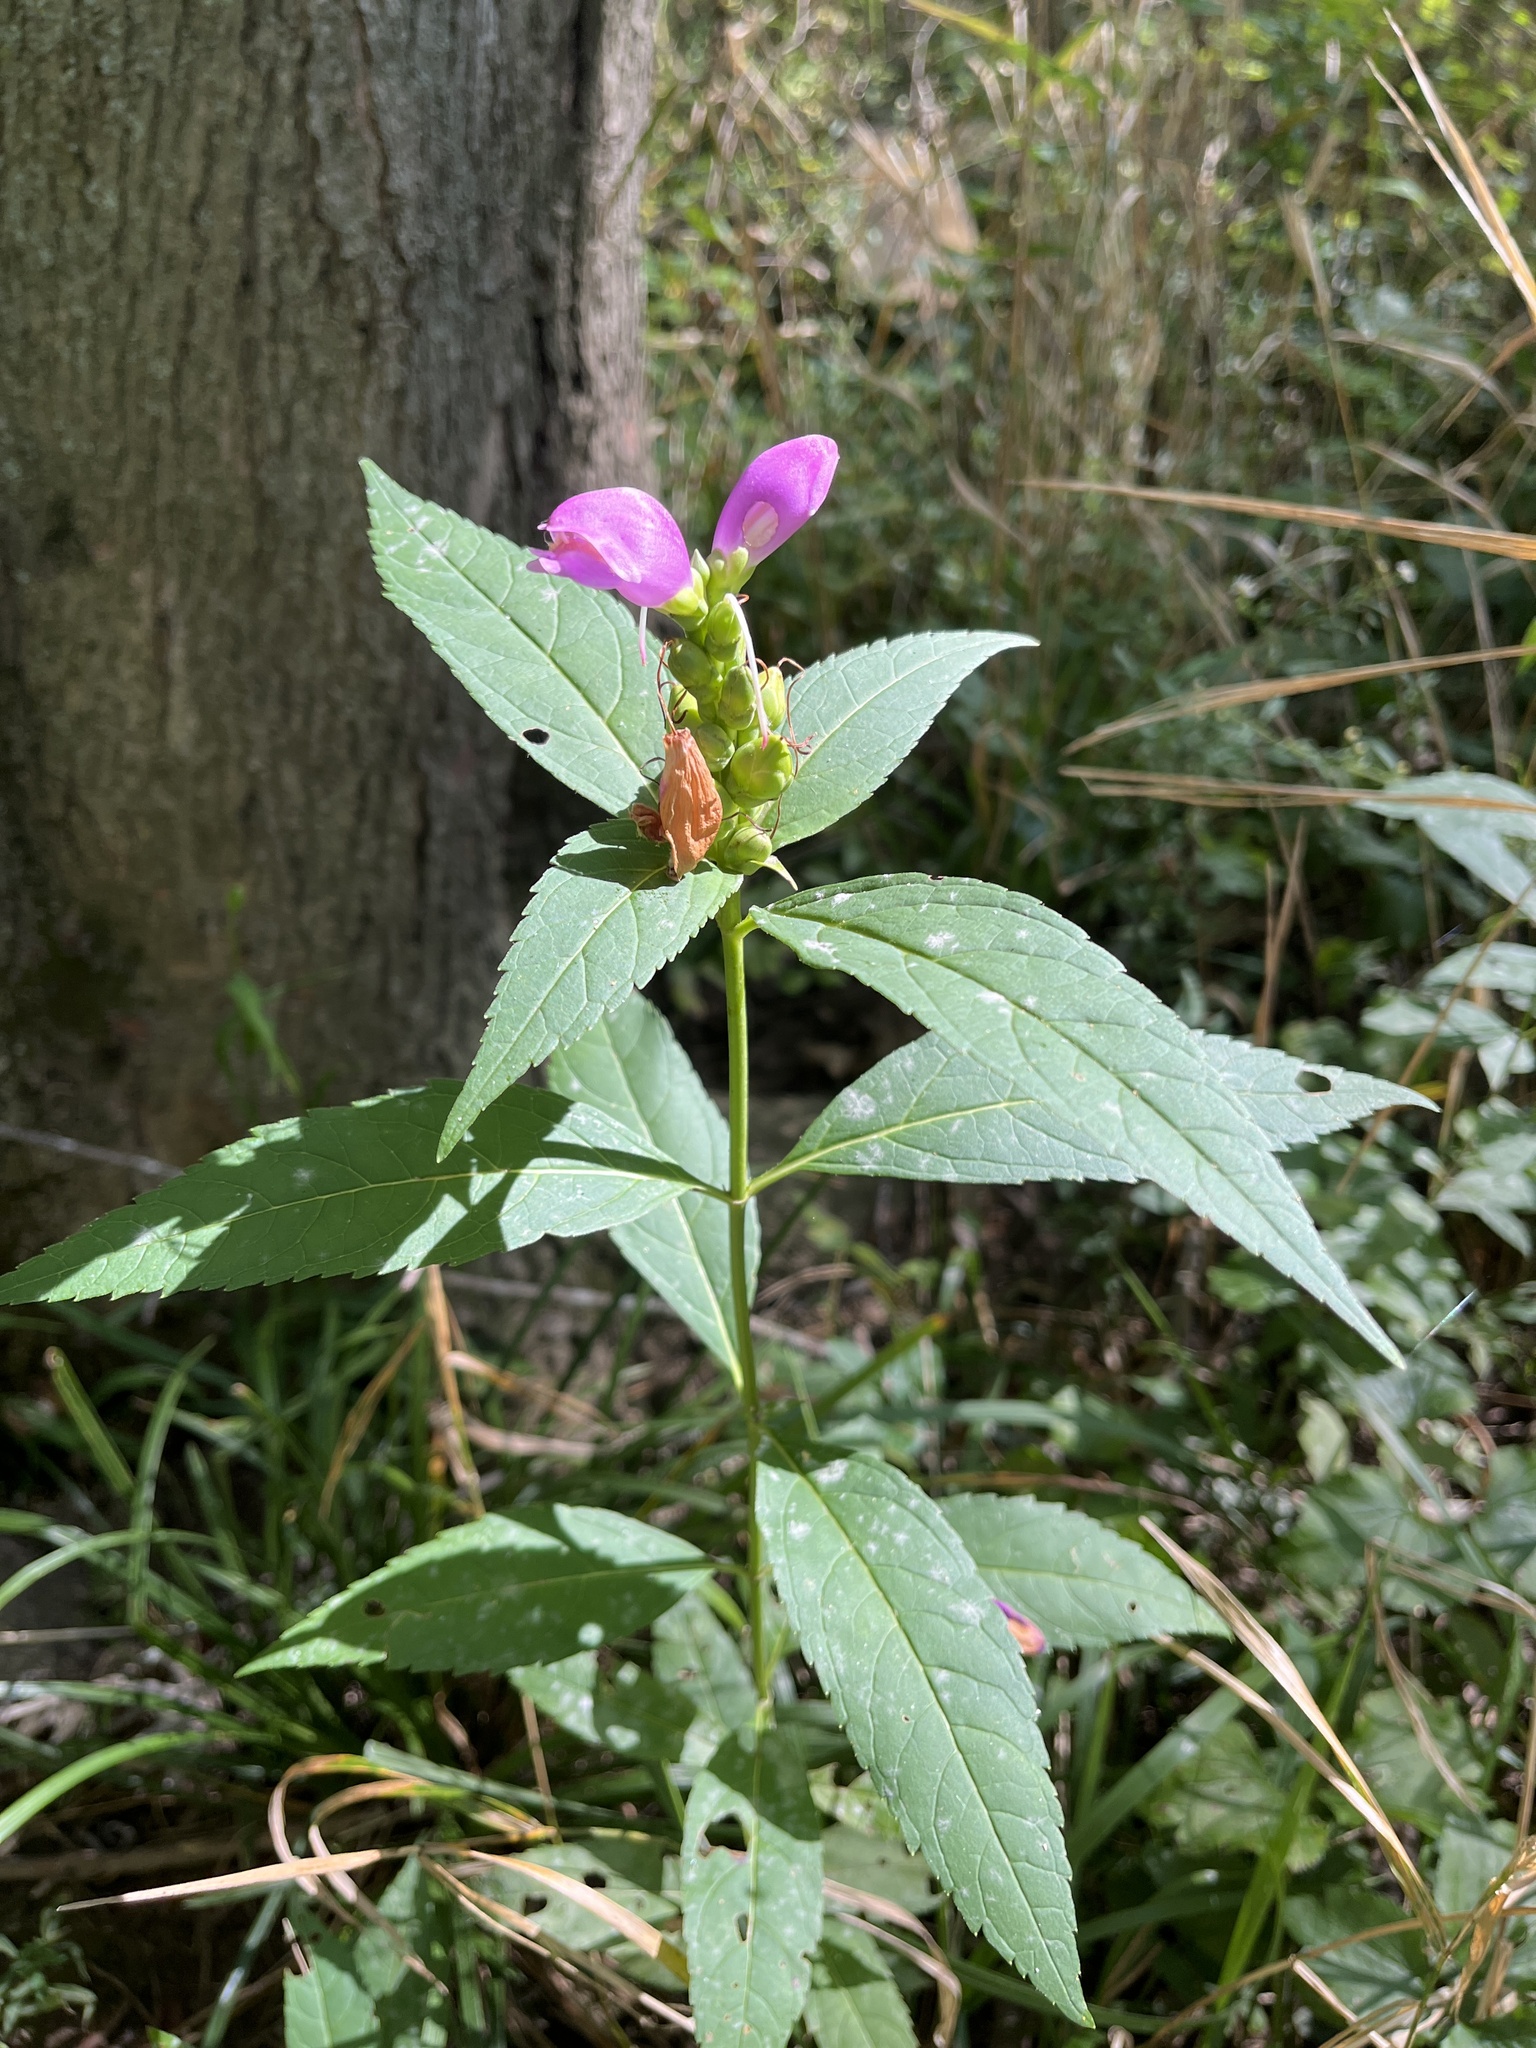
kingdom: Plantae
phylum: Tracheophyta
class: Magnoliopsida
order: Lamiales
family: Plantaginaceae
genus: Chelone
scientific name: Chelone obliqua
